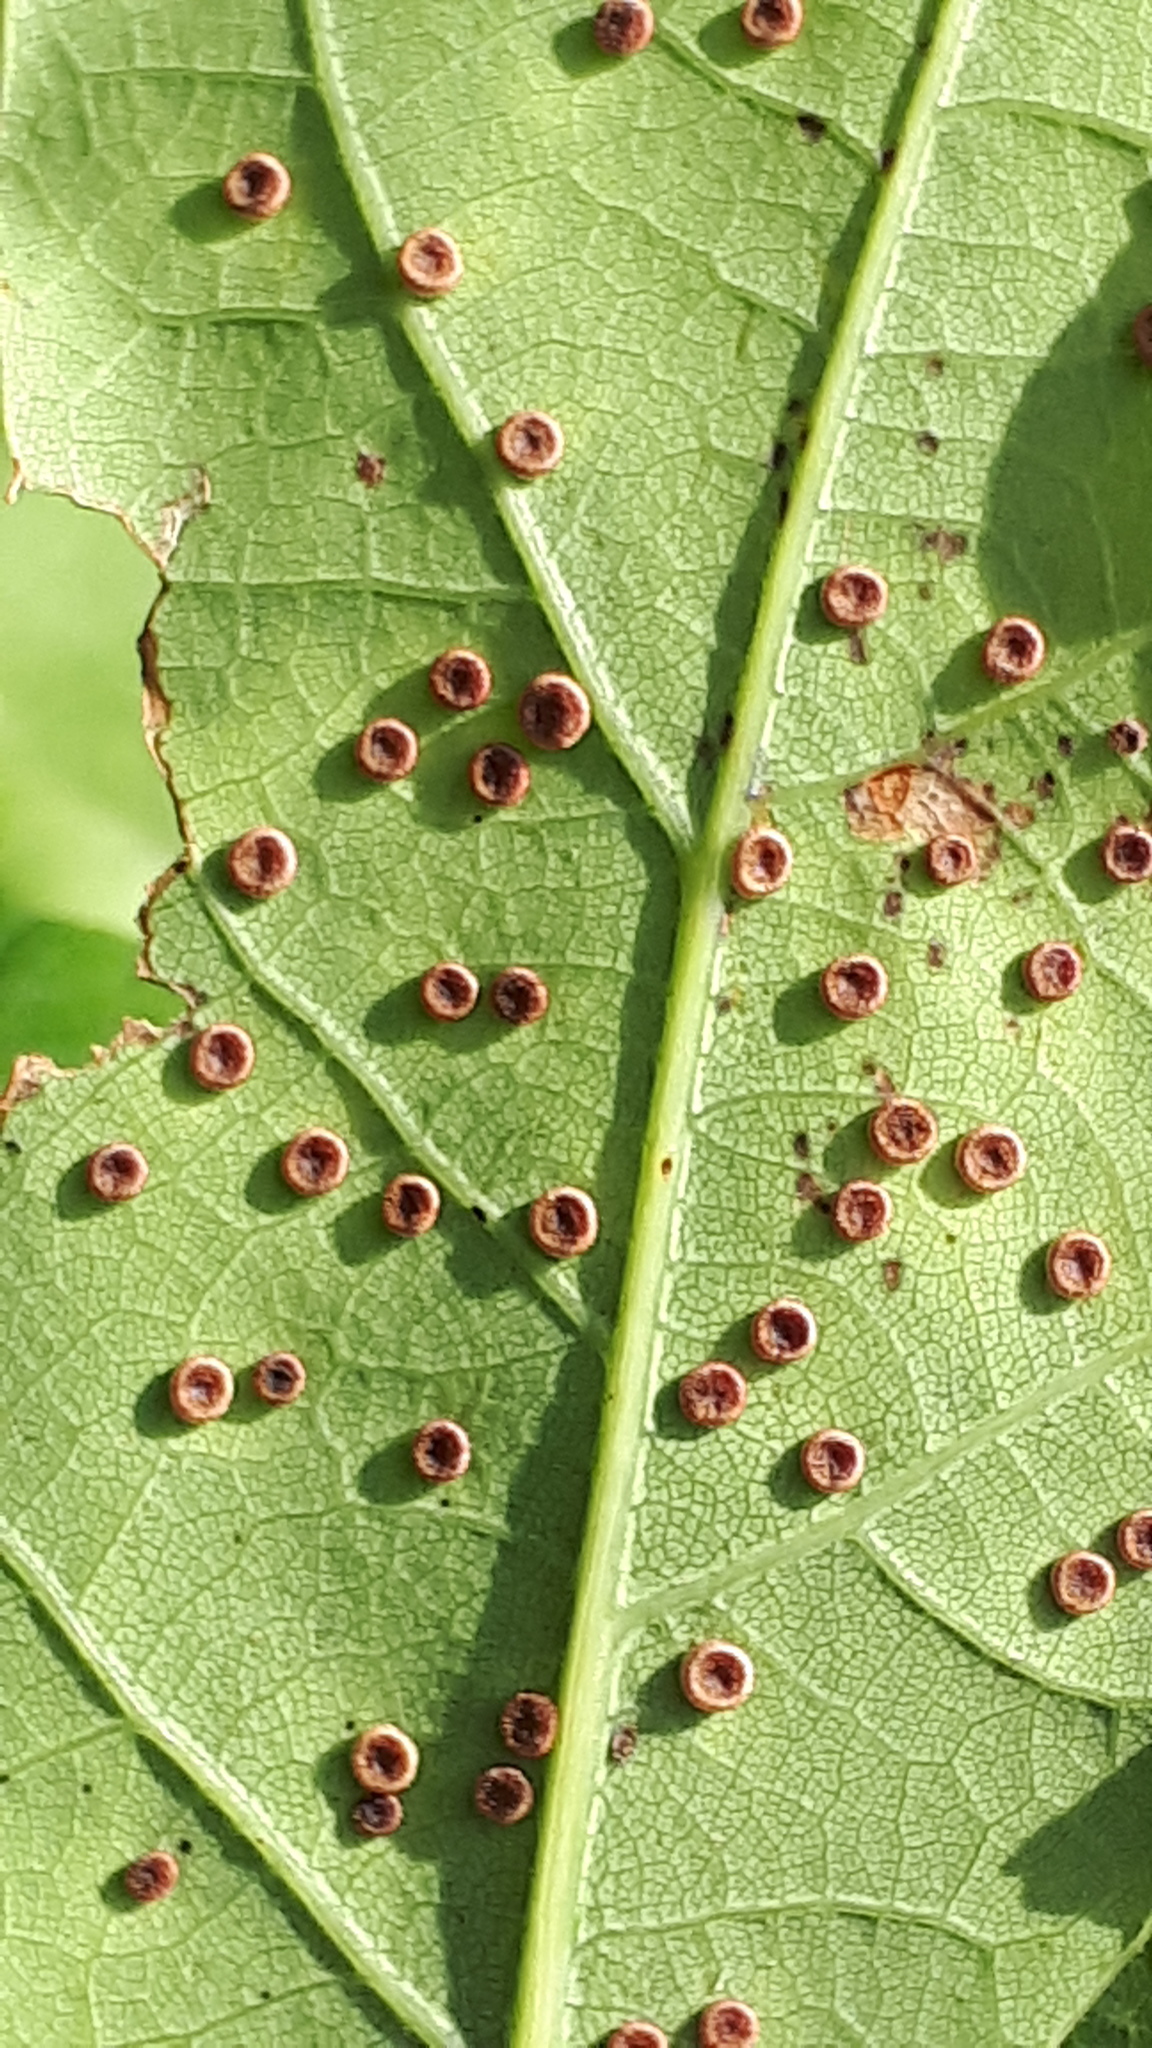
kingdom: Animalia
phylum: Arthropoda
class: Insecta
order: Hymenoptera
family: Cynipidae
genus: Neuroterus
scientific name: Neuroterus numismalis
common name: Silk-button spangle gall
